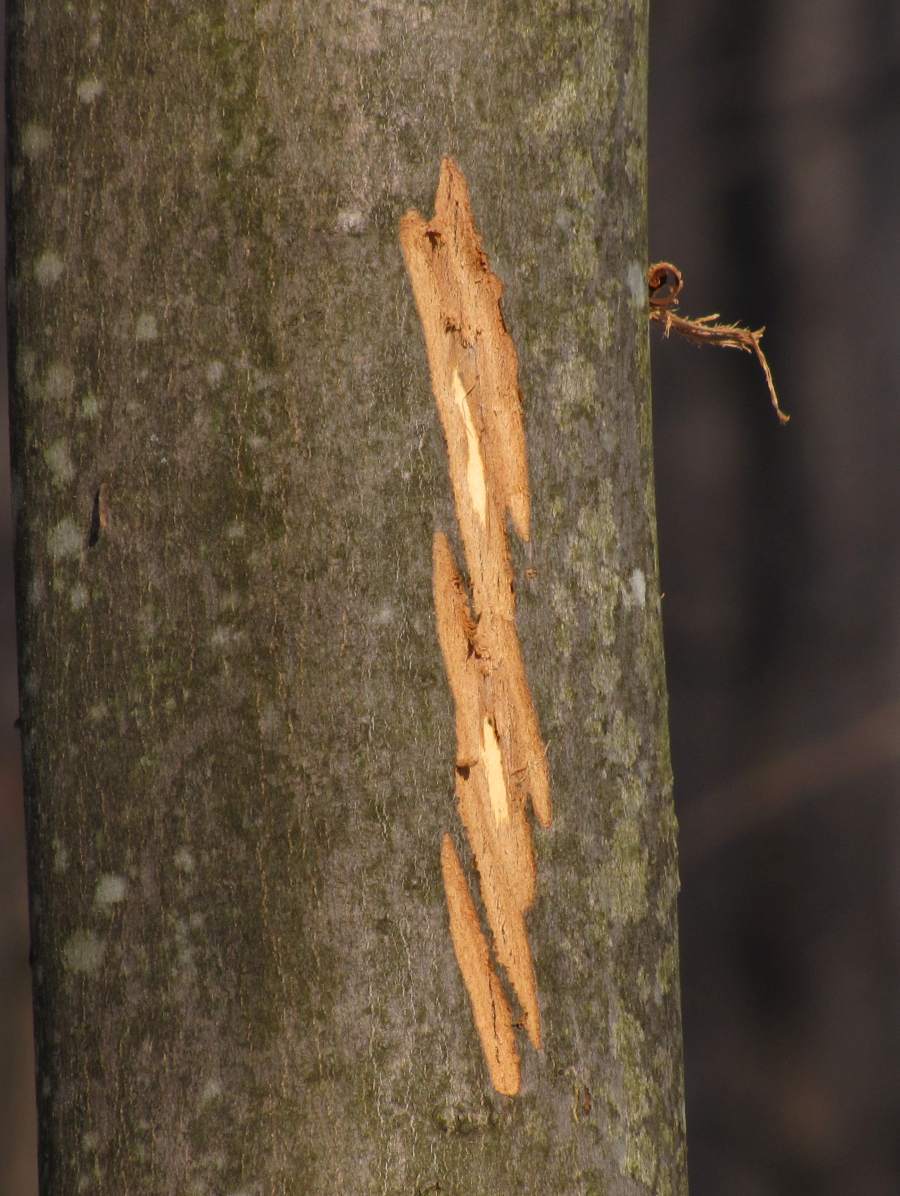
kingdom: Animalia
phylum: Chordata
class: Mammalia
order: Artiodactyla
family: Cervidae
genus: Alces
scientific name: Alces alces
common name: Moose
